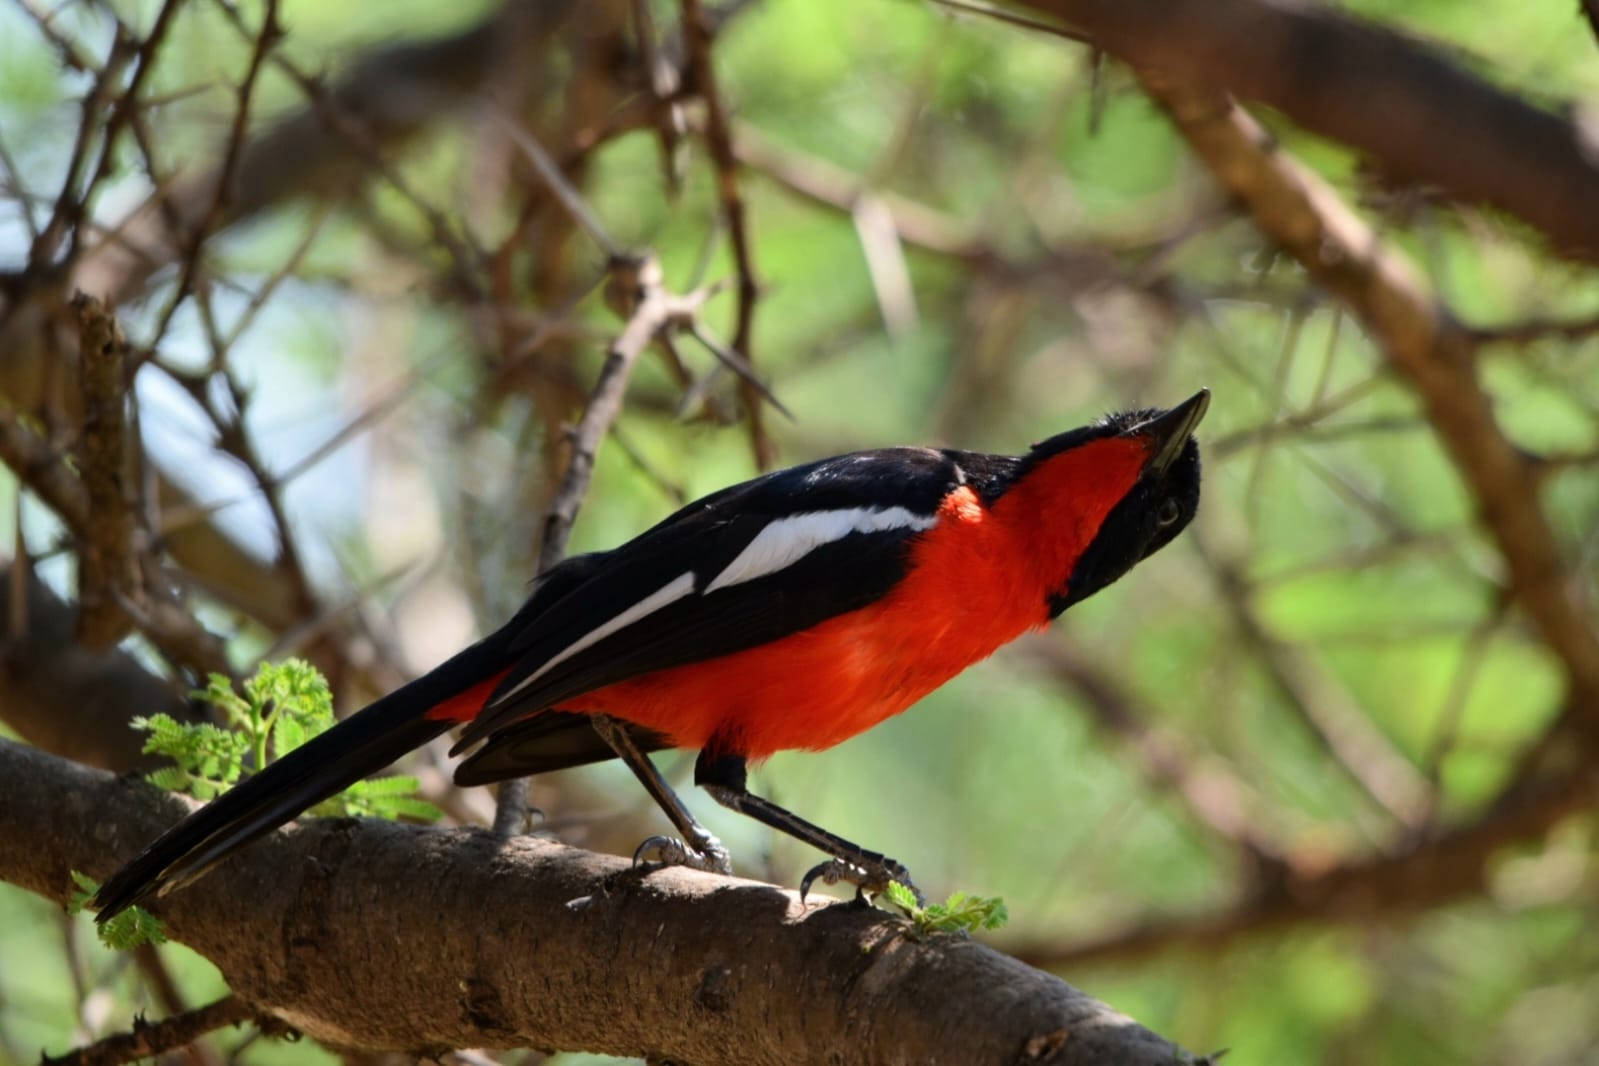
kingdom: Animalia
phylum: Chordata
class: Aves
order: Passeriformes
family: Malaconotidae
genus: Laniarius
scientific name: Laniarius atrococcineus
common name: Crimson-breasted shrike
